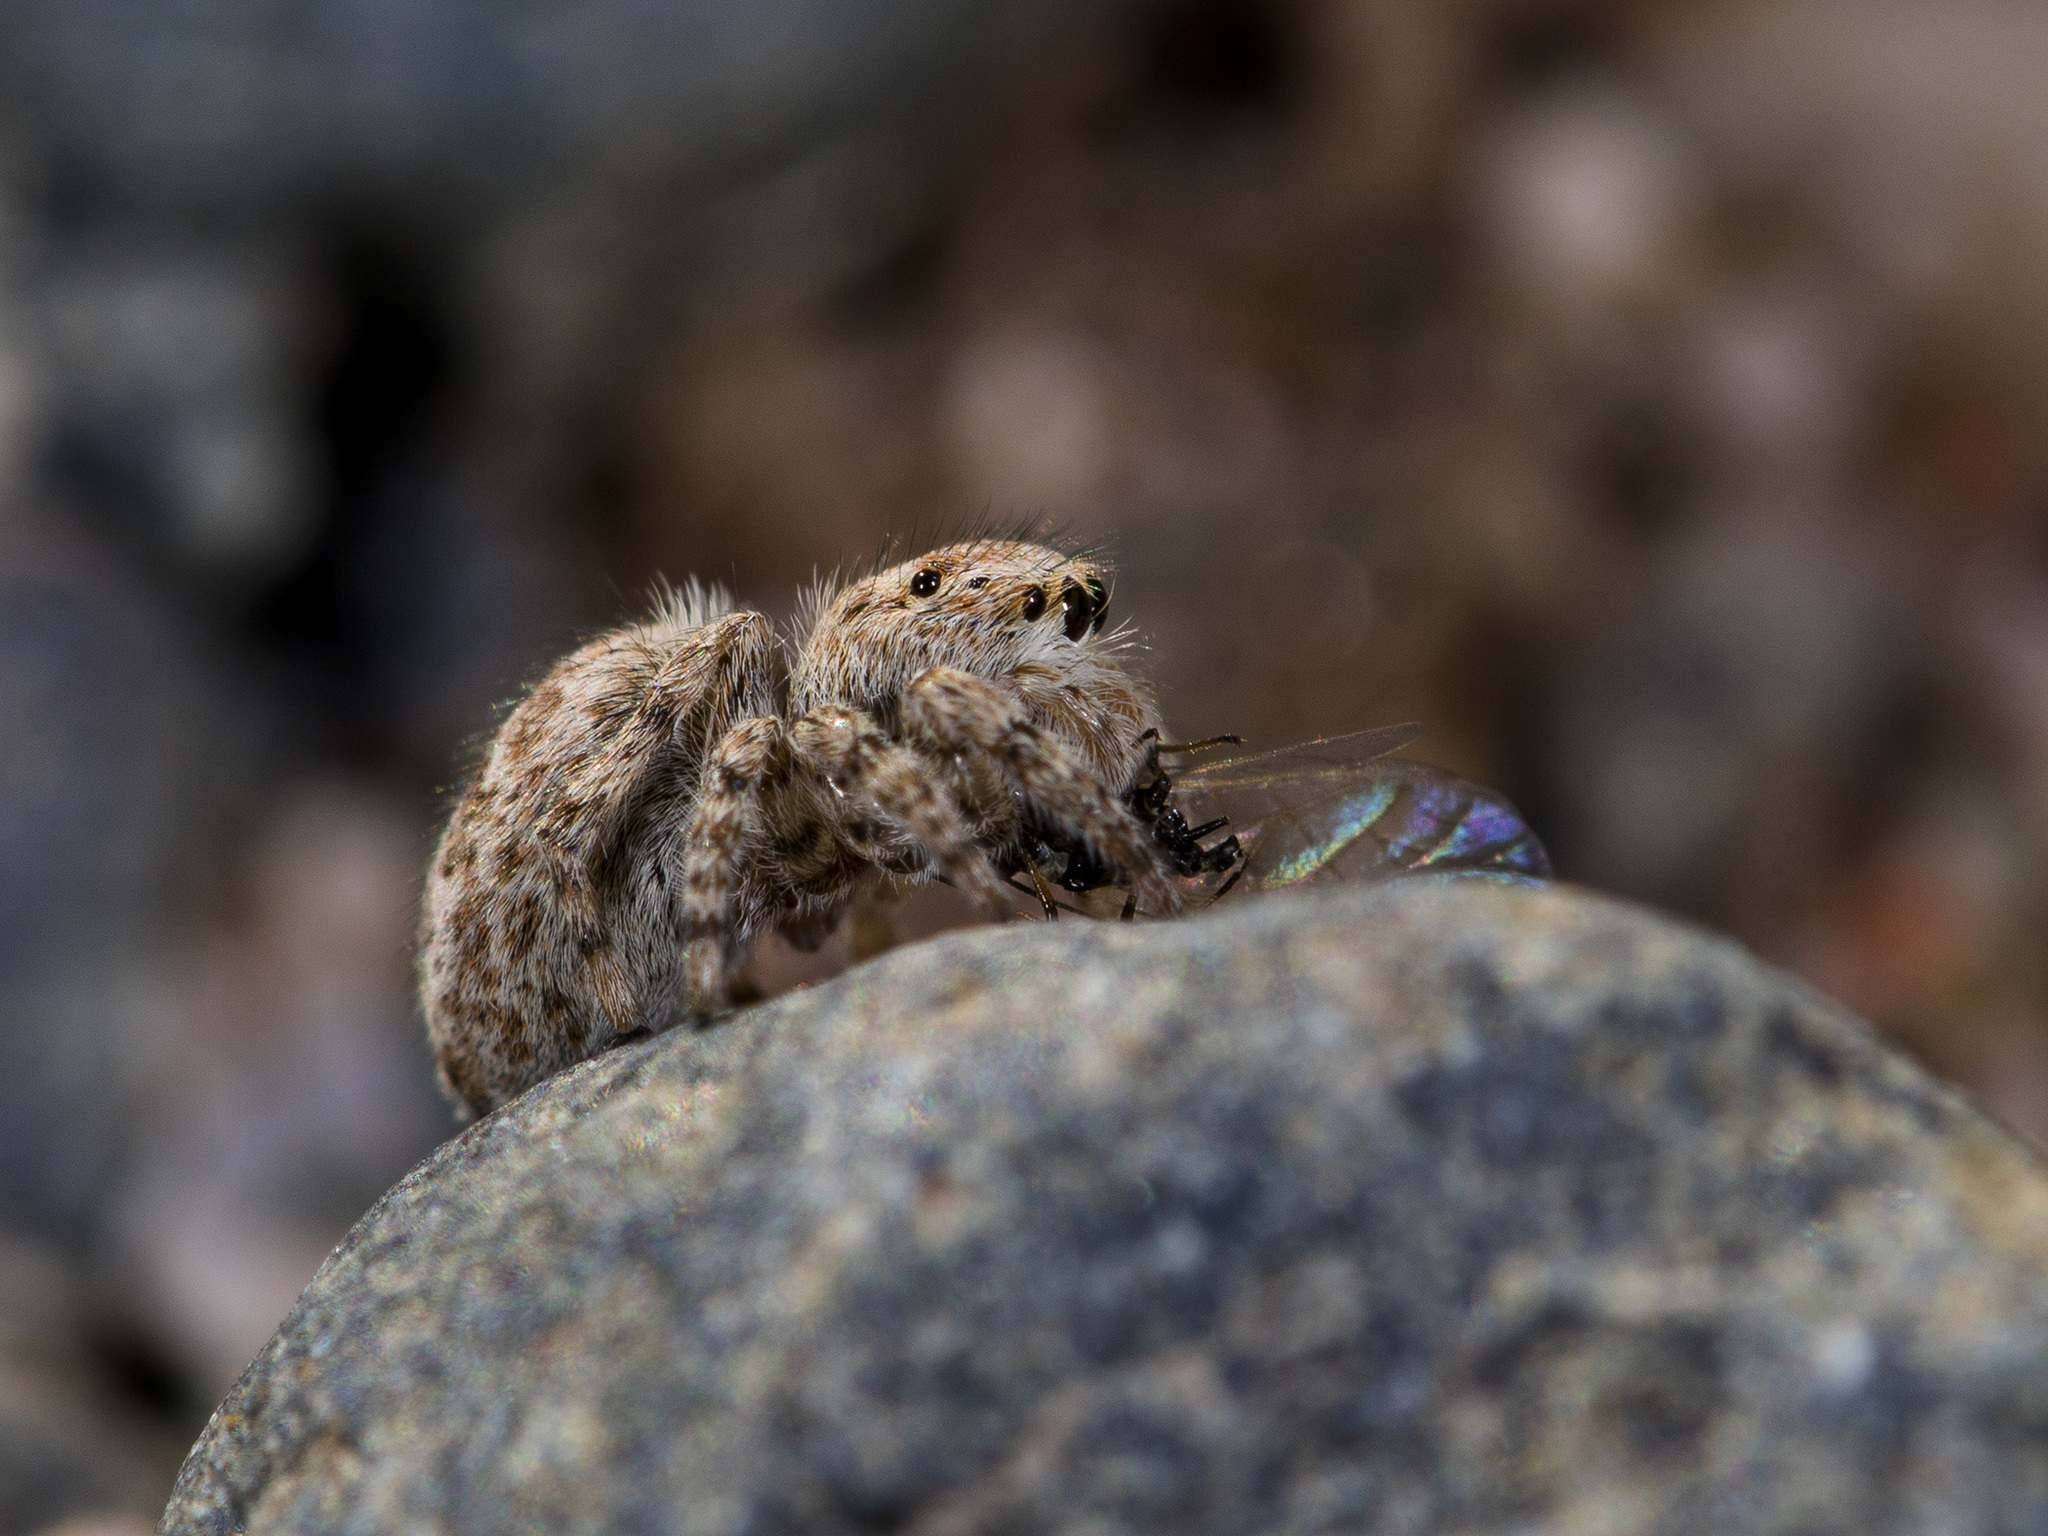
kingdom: Animalia
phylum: Arthropoda
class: Arachnida
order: Araneae
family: Salticidae
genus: Attulus
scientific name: Attulus avocator
